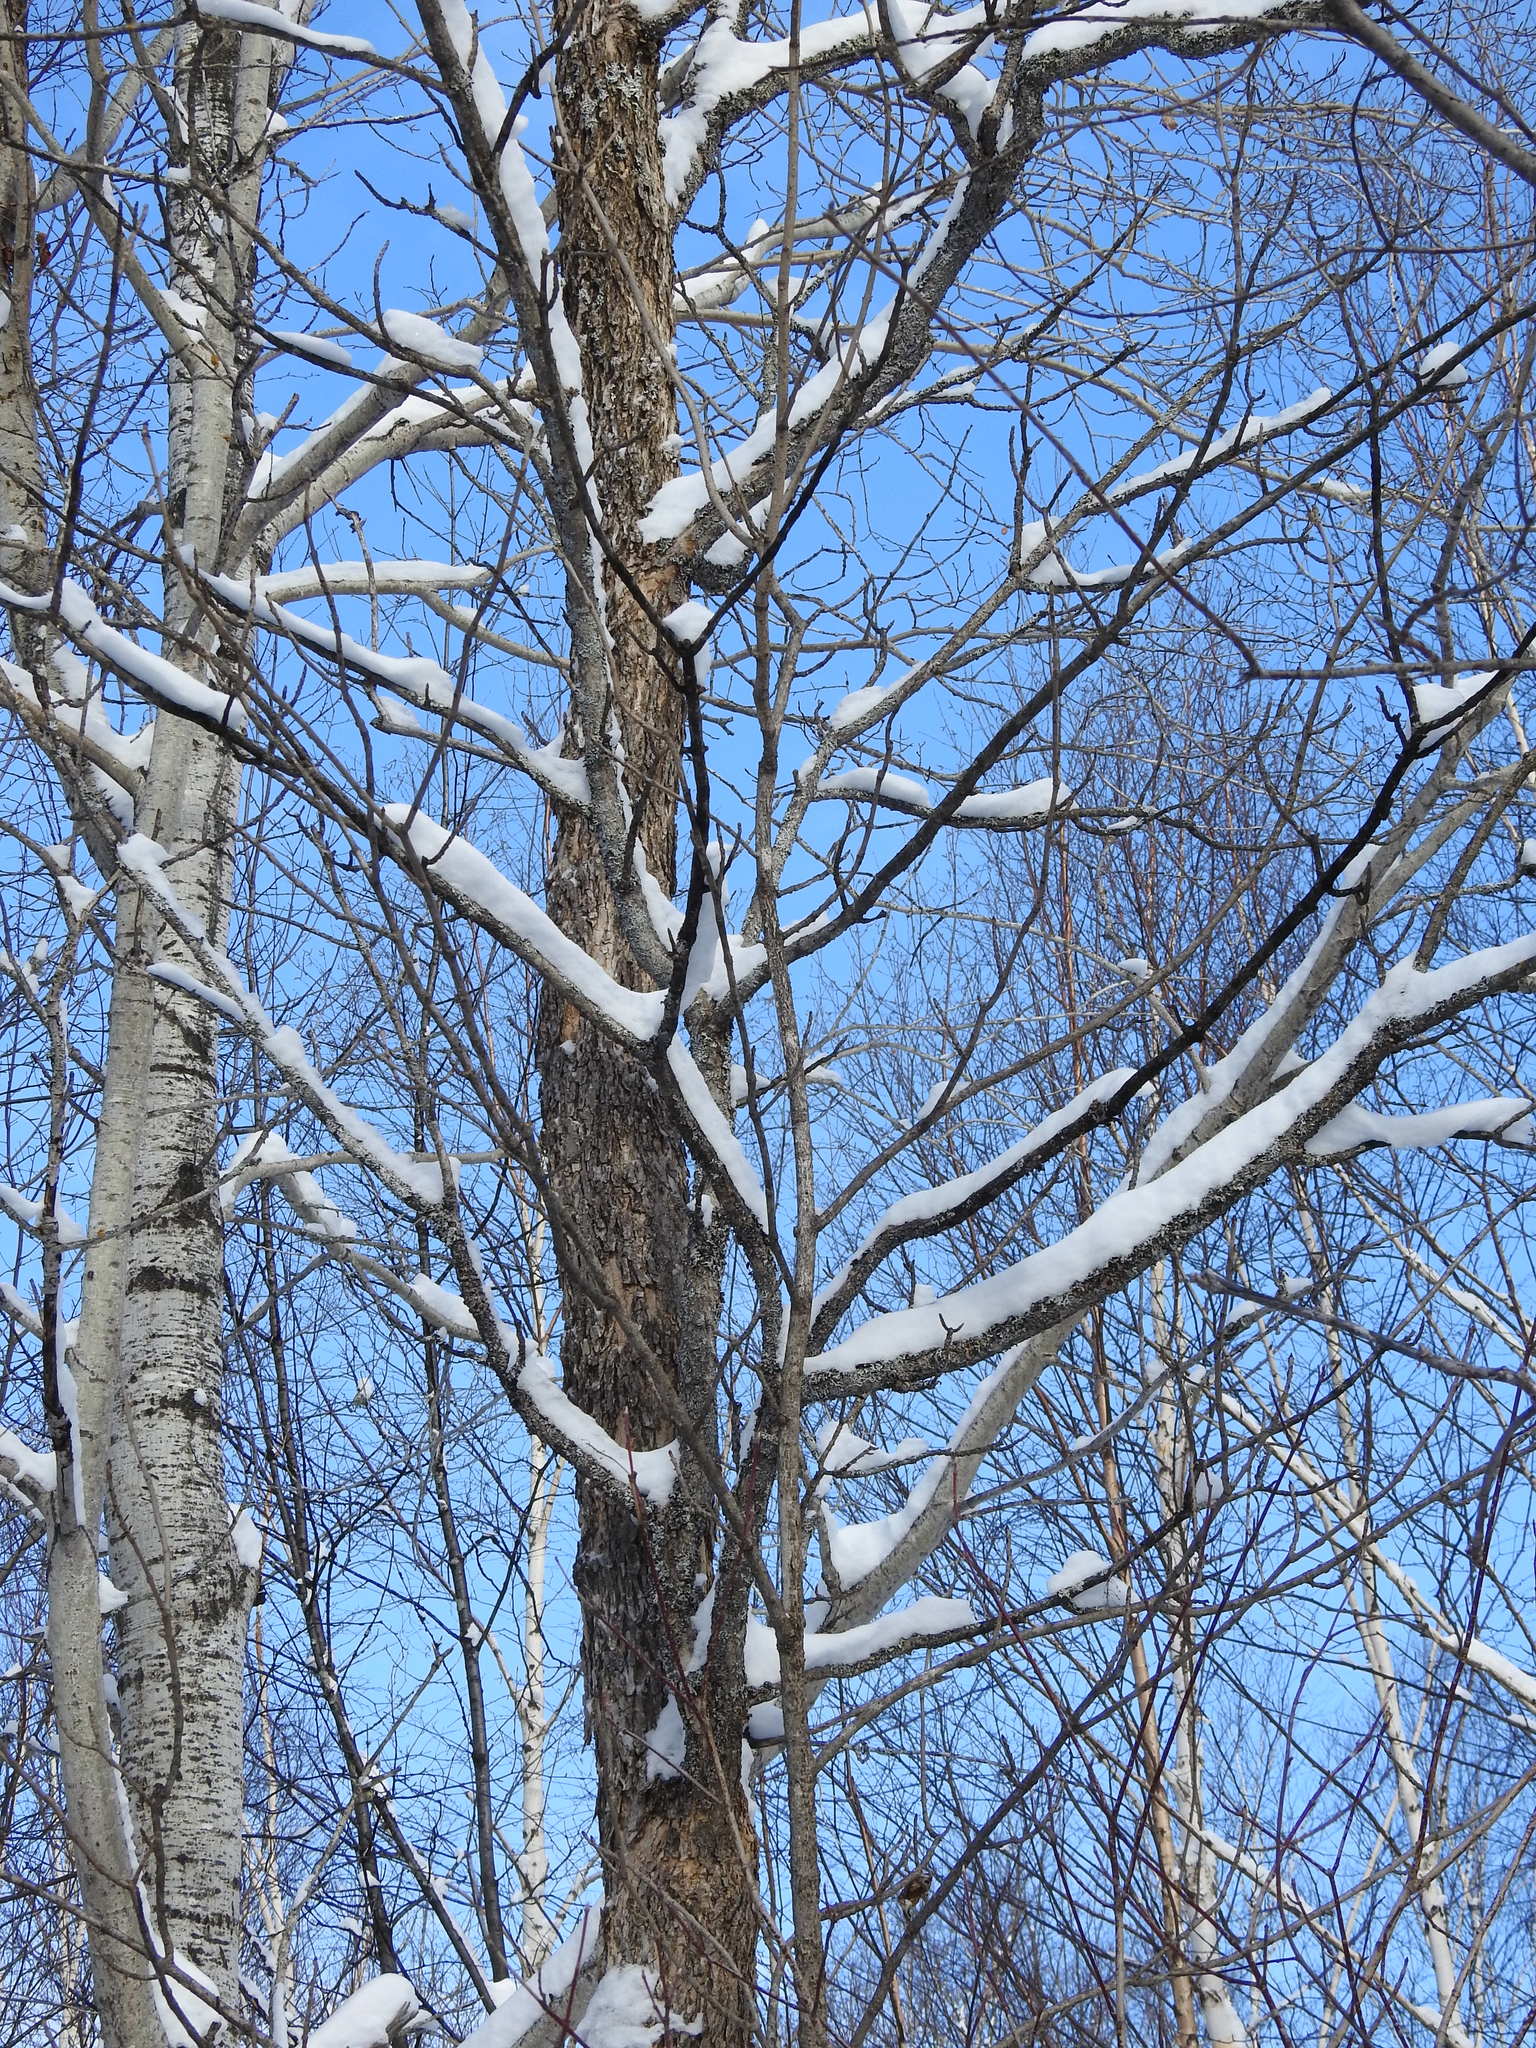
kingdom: Plantae
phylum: Tracheophyta
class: Magnoliopsida
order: Lamiales
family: Oleaceae
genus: Fraxinus
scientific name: Fraxinus nigra
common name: Black ash
